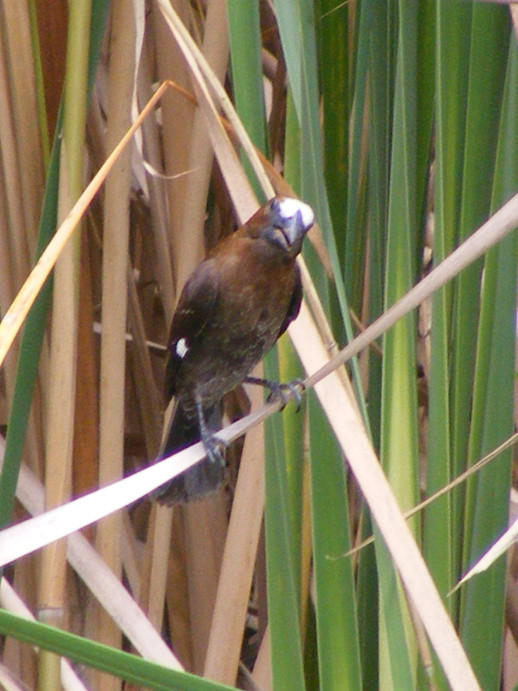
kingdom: Animalia
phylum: Chordata
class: Aves
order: Passeriformes
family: Ploceidae
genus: Amblyospiza
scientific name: Amblyospiza albifrons
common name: Thick-billed weaver
